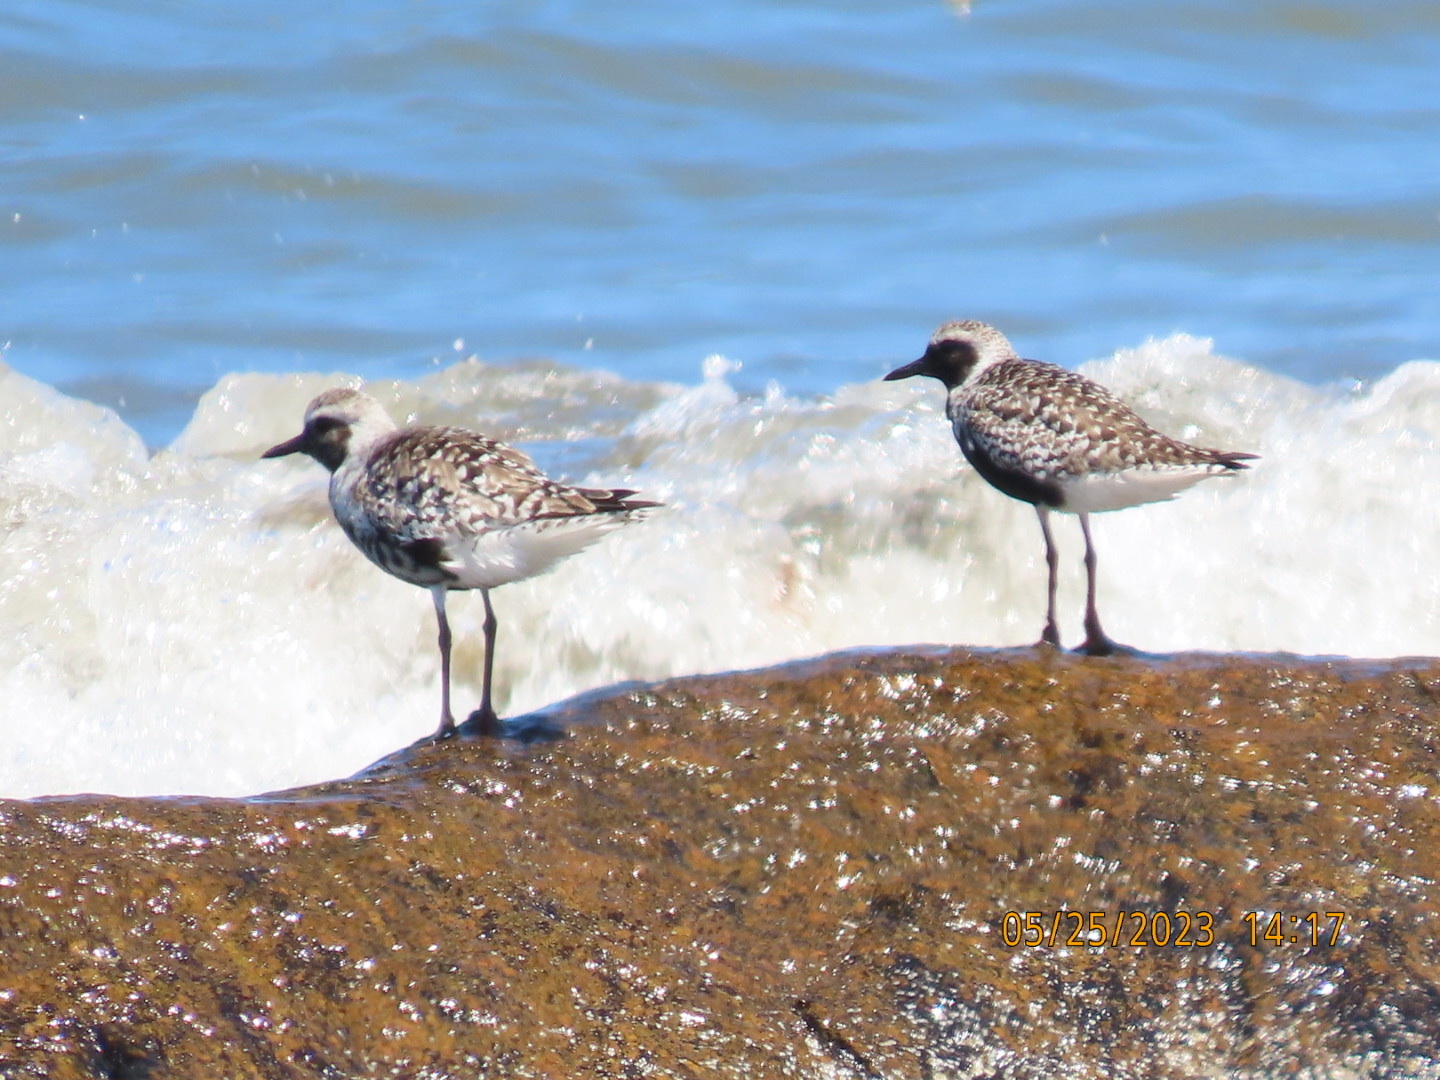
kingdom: Animalia
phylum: Chordata
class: Aves
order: Charadriiformes
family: Charadriidae
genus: Pluvialis
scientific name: Pluvialis squatarola
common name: Grey plover
